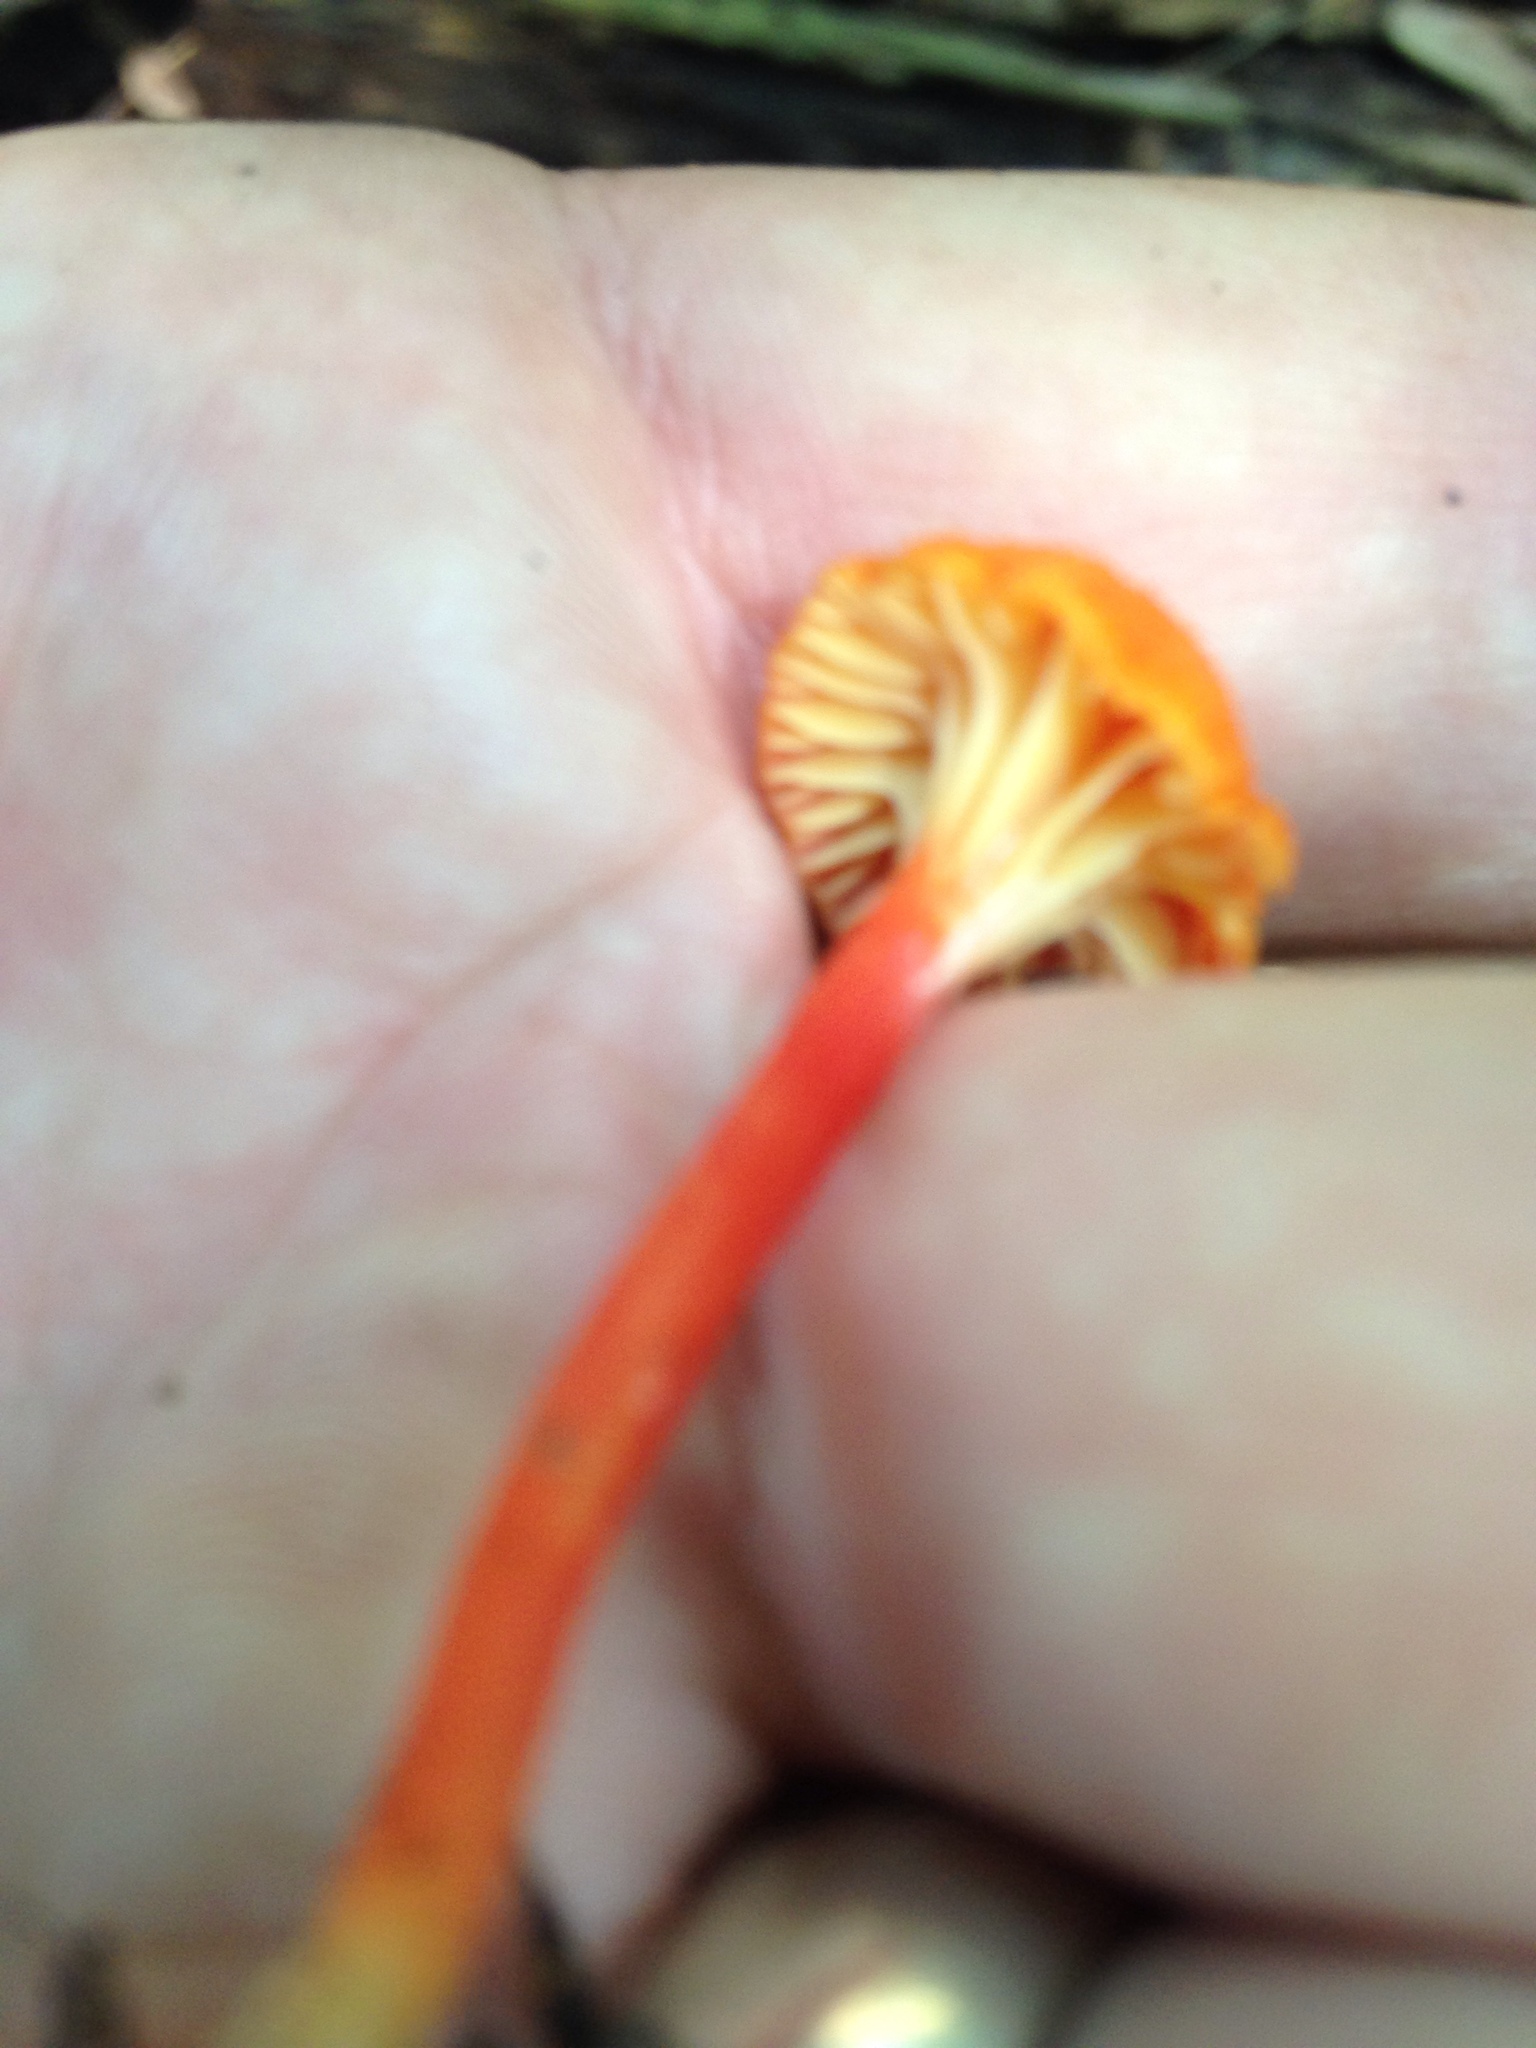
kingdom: Fungi
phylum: Basidiomycota
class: Agaricomycetes
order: Agaricales
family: Hygrophoraceae
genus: Hygrocybe
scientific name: Hygrocybe cantharellus
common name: Goblet waxcap
